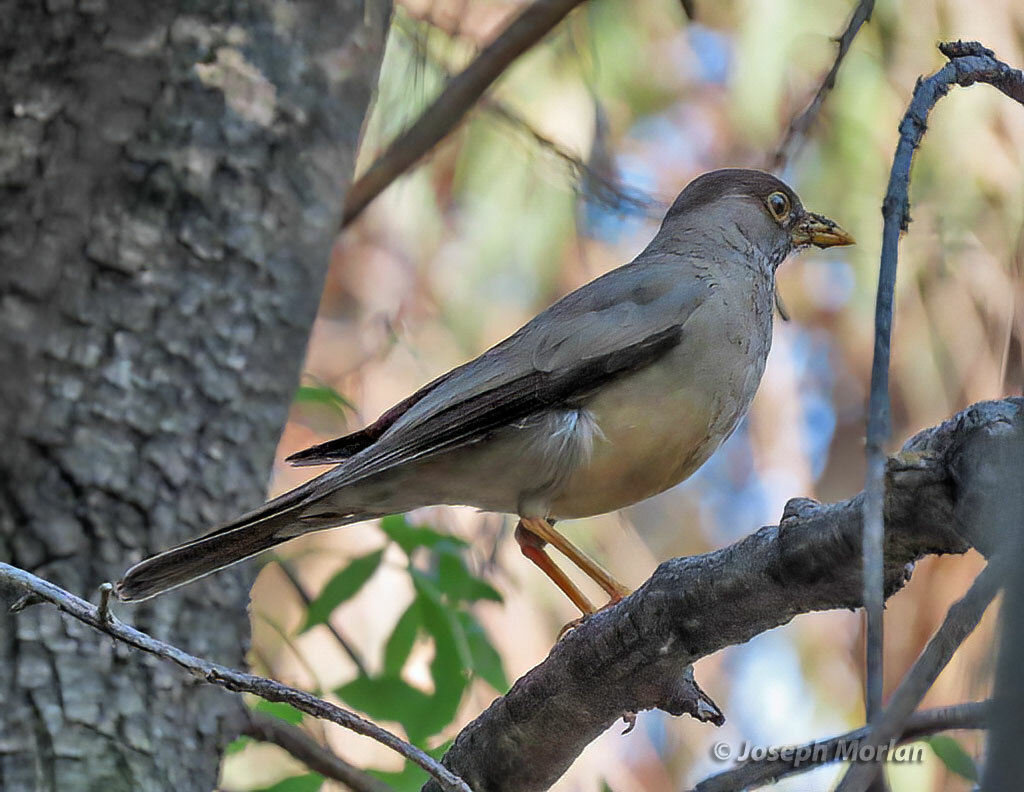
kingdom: Animalia
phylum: Chordata
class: Aves
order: Passeriformes
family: Turdidae
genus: Turdus
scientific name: Turdus falcklandii
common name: Austral thrush
